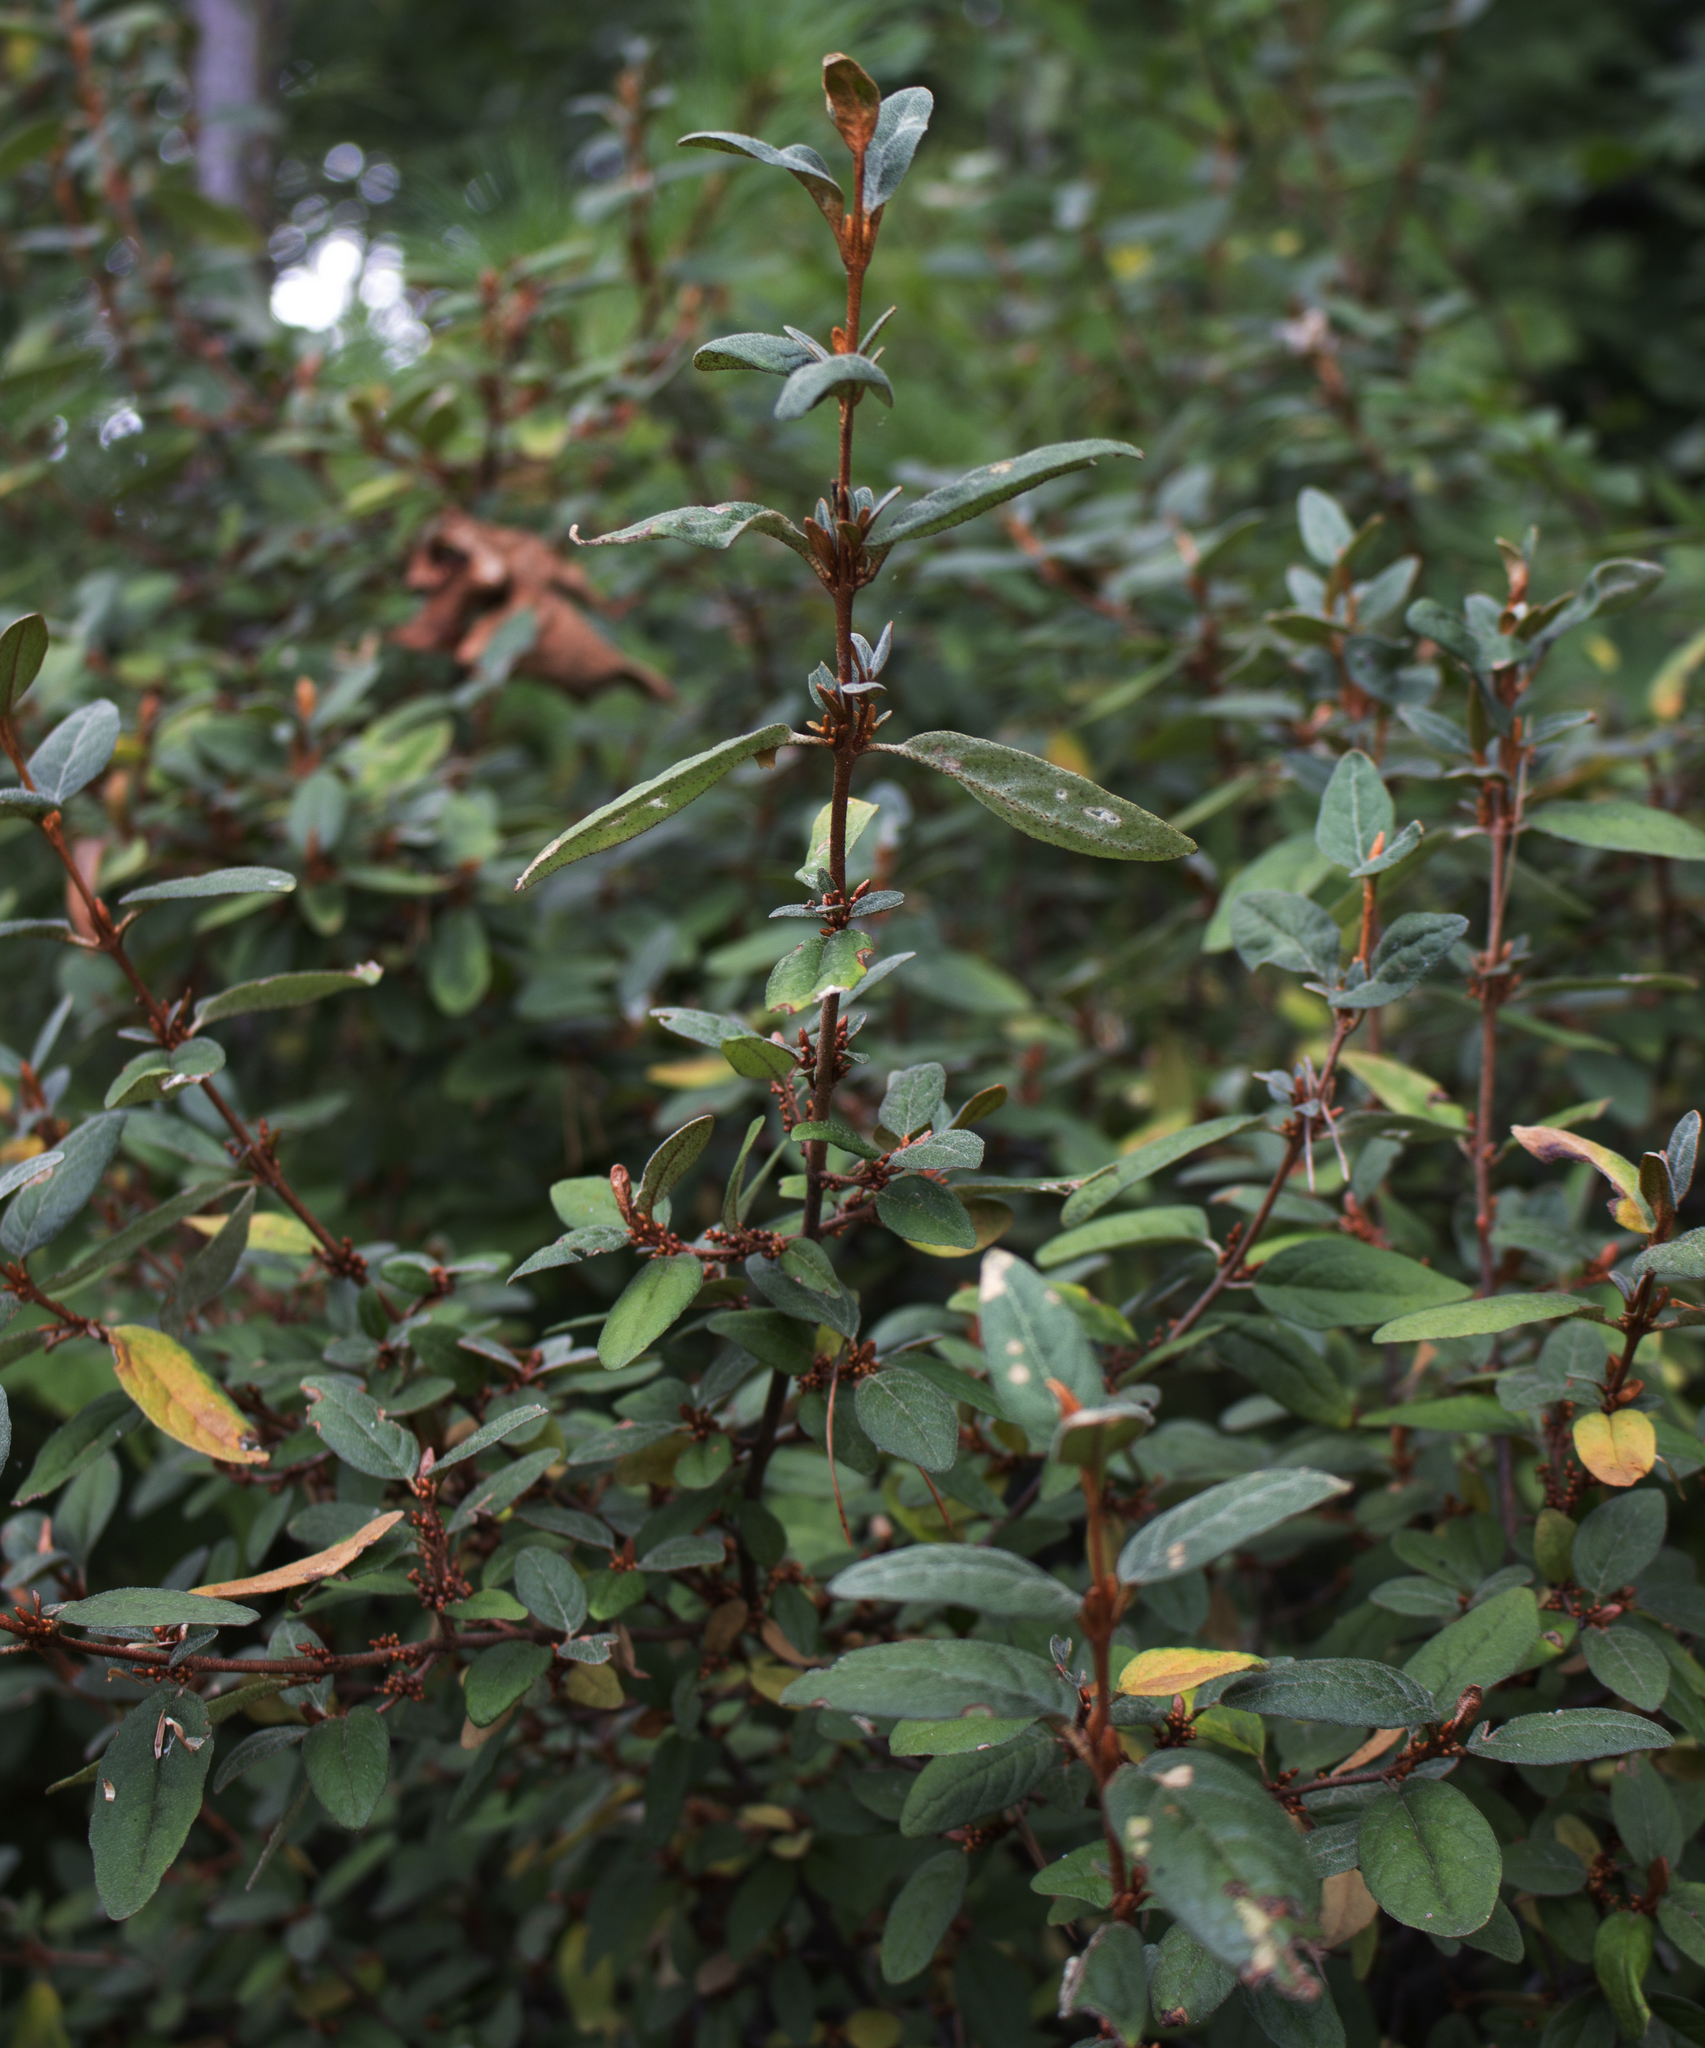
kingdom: Plantae
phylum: Tracheophyta
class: Magnoliopsida
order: Rosales
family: Elaeagnaceae
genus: Shepherdia
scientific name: Shepherdia canadensis
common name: Soapberry
